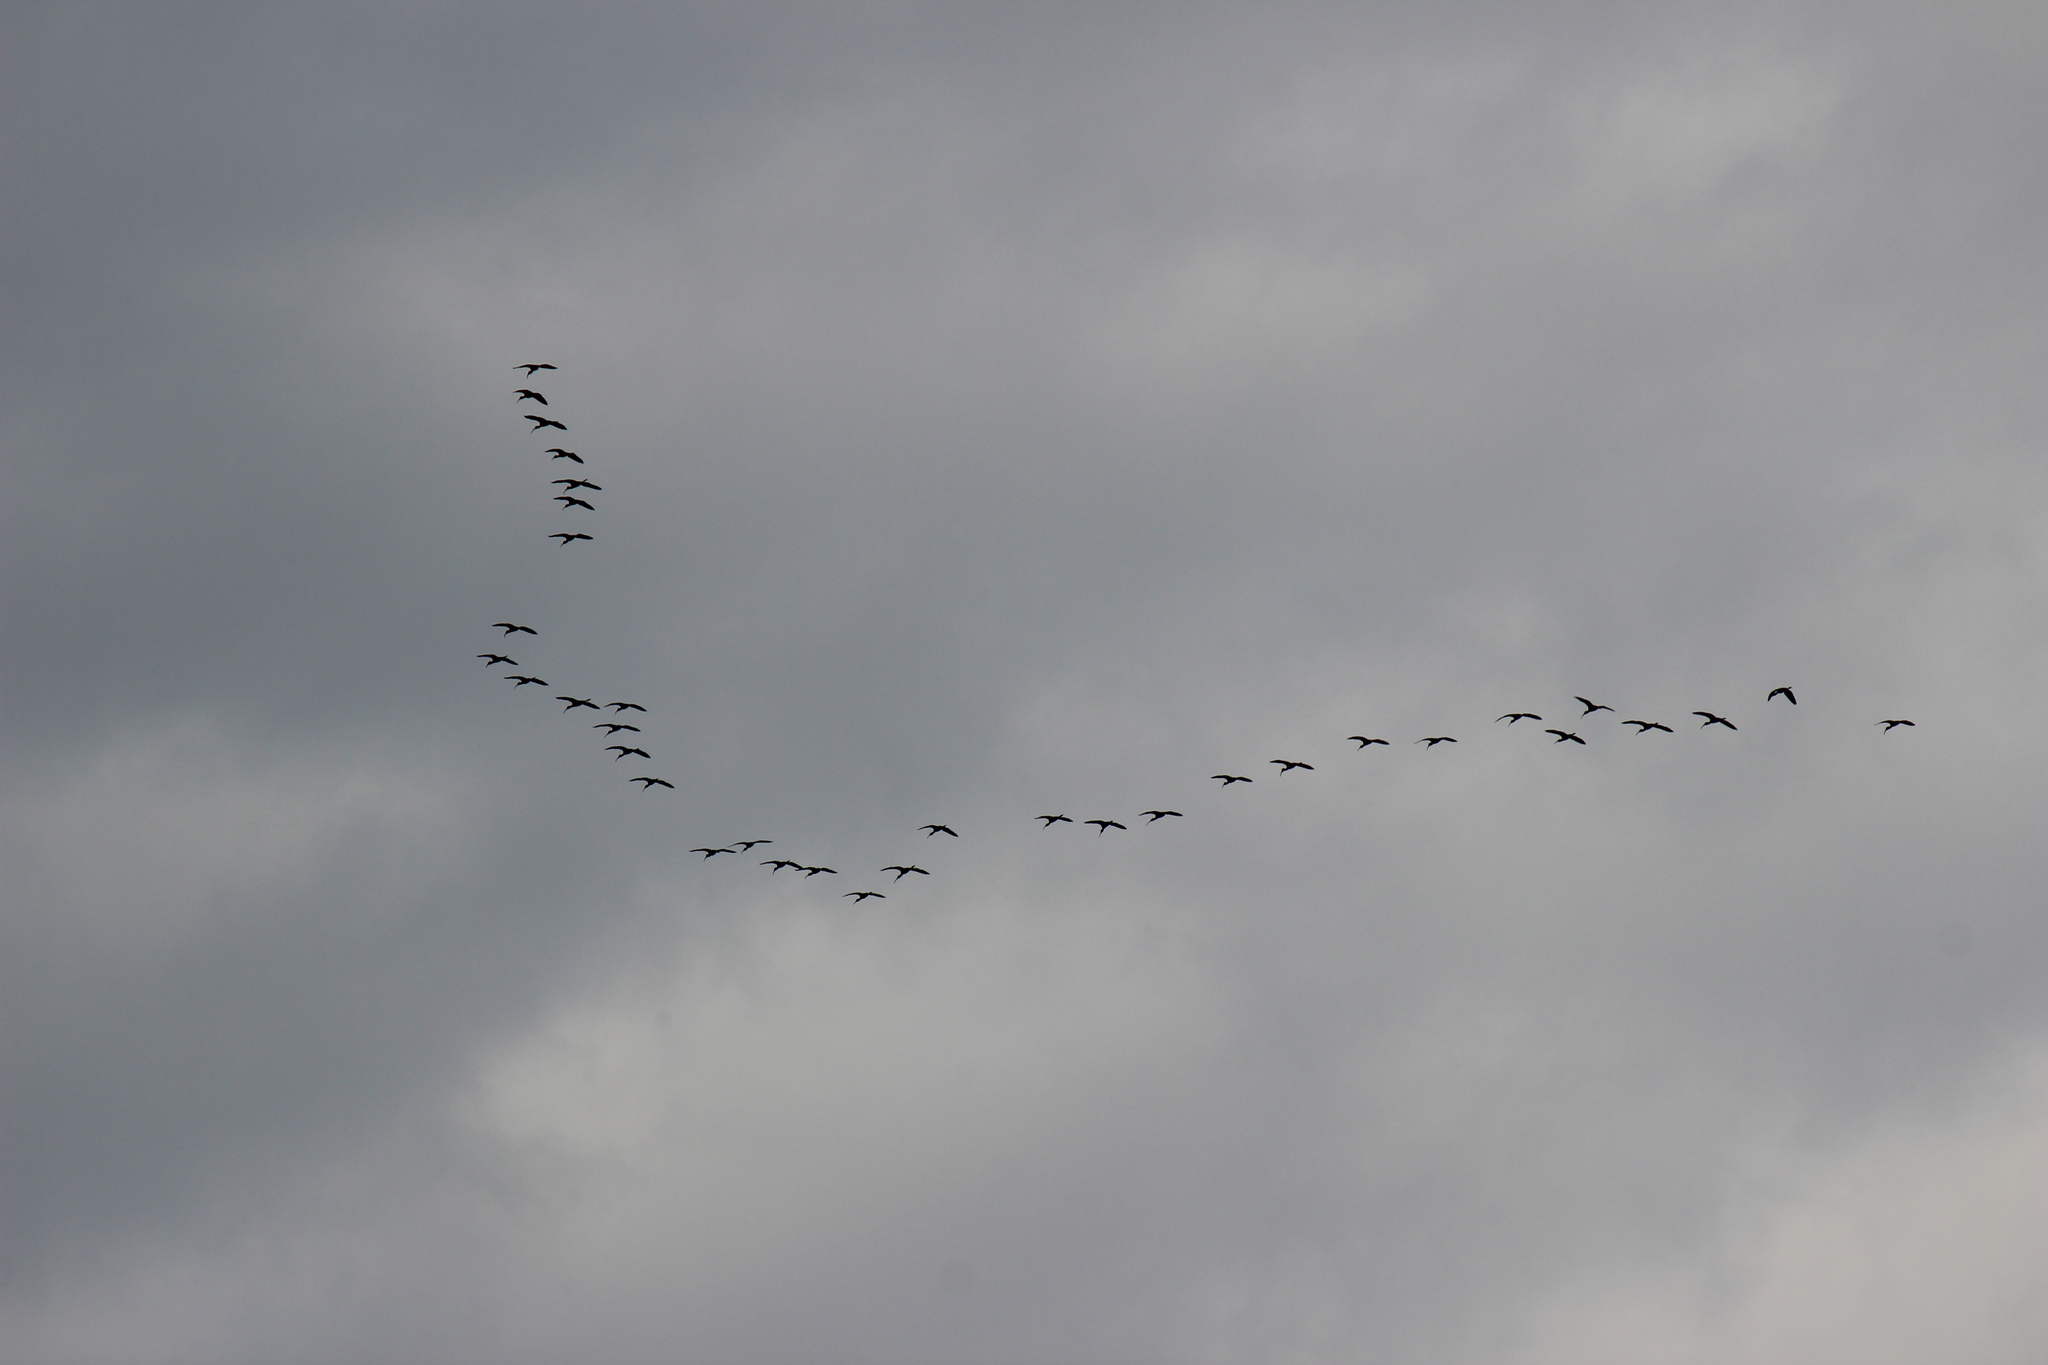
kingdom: Animalia
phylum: Chordata
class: Aves
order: Pelecaniformes
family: Threskiornithidae
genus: Plegadis
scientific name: Plegadis chihi
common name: White-faced ibis
